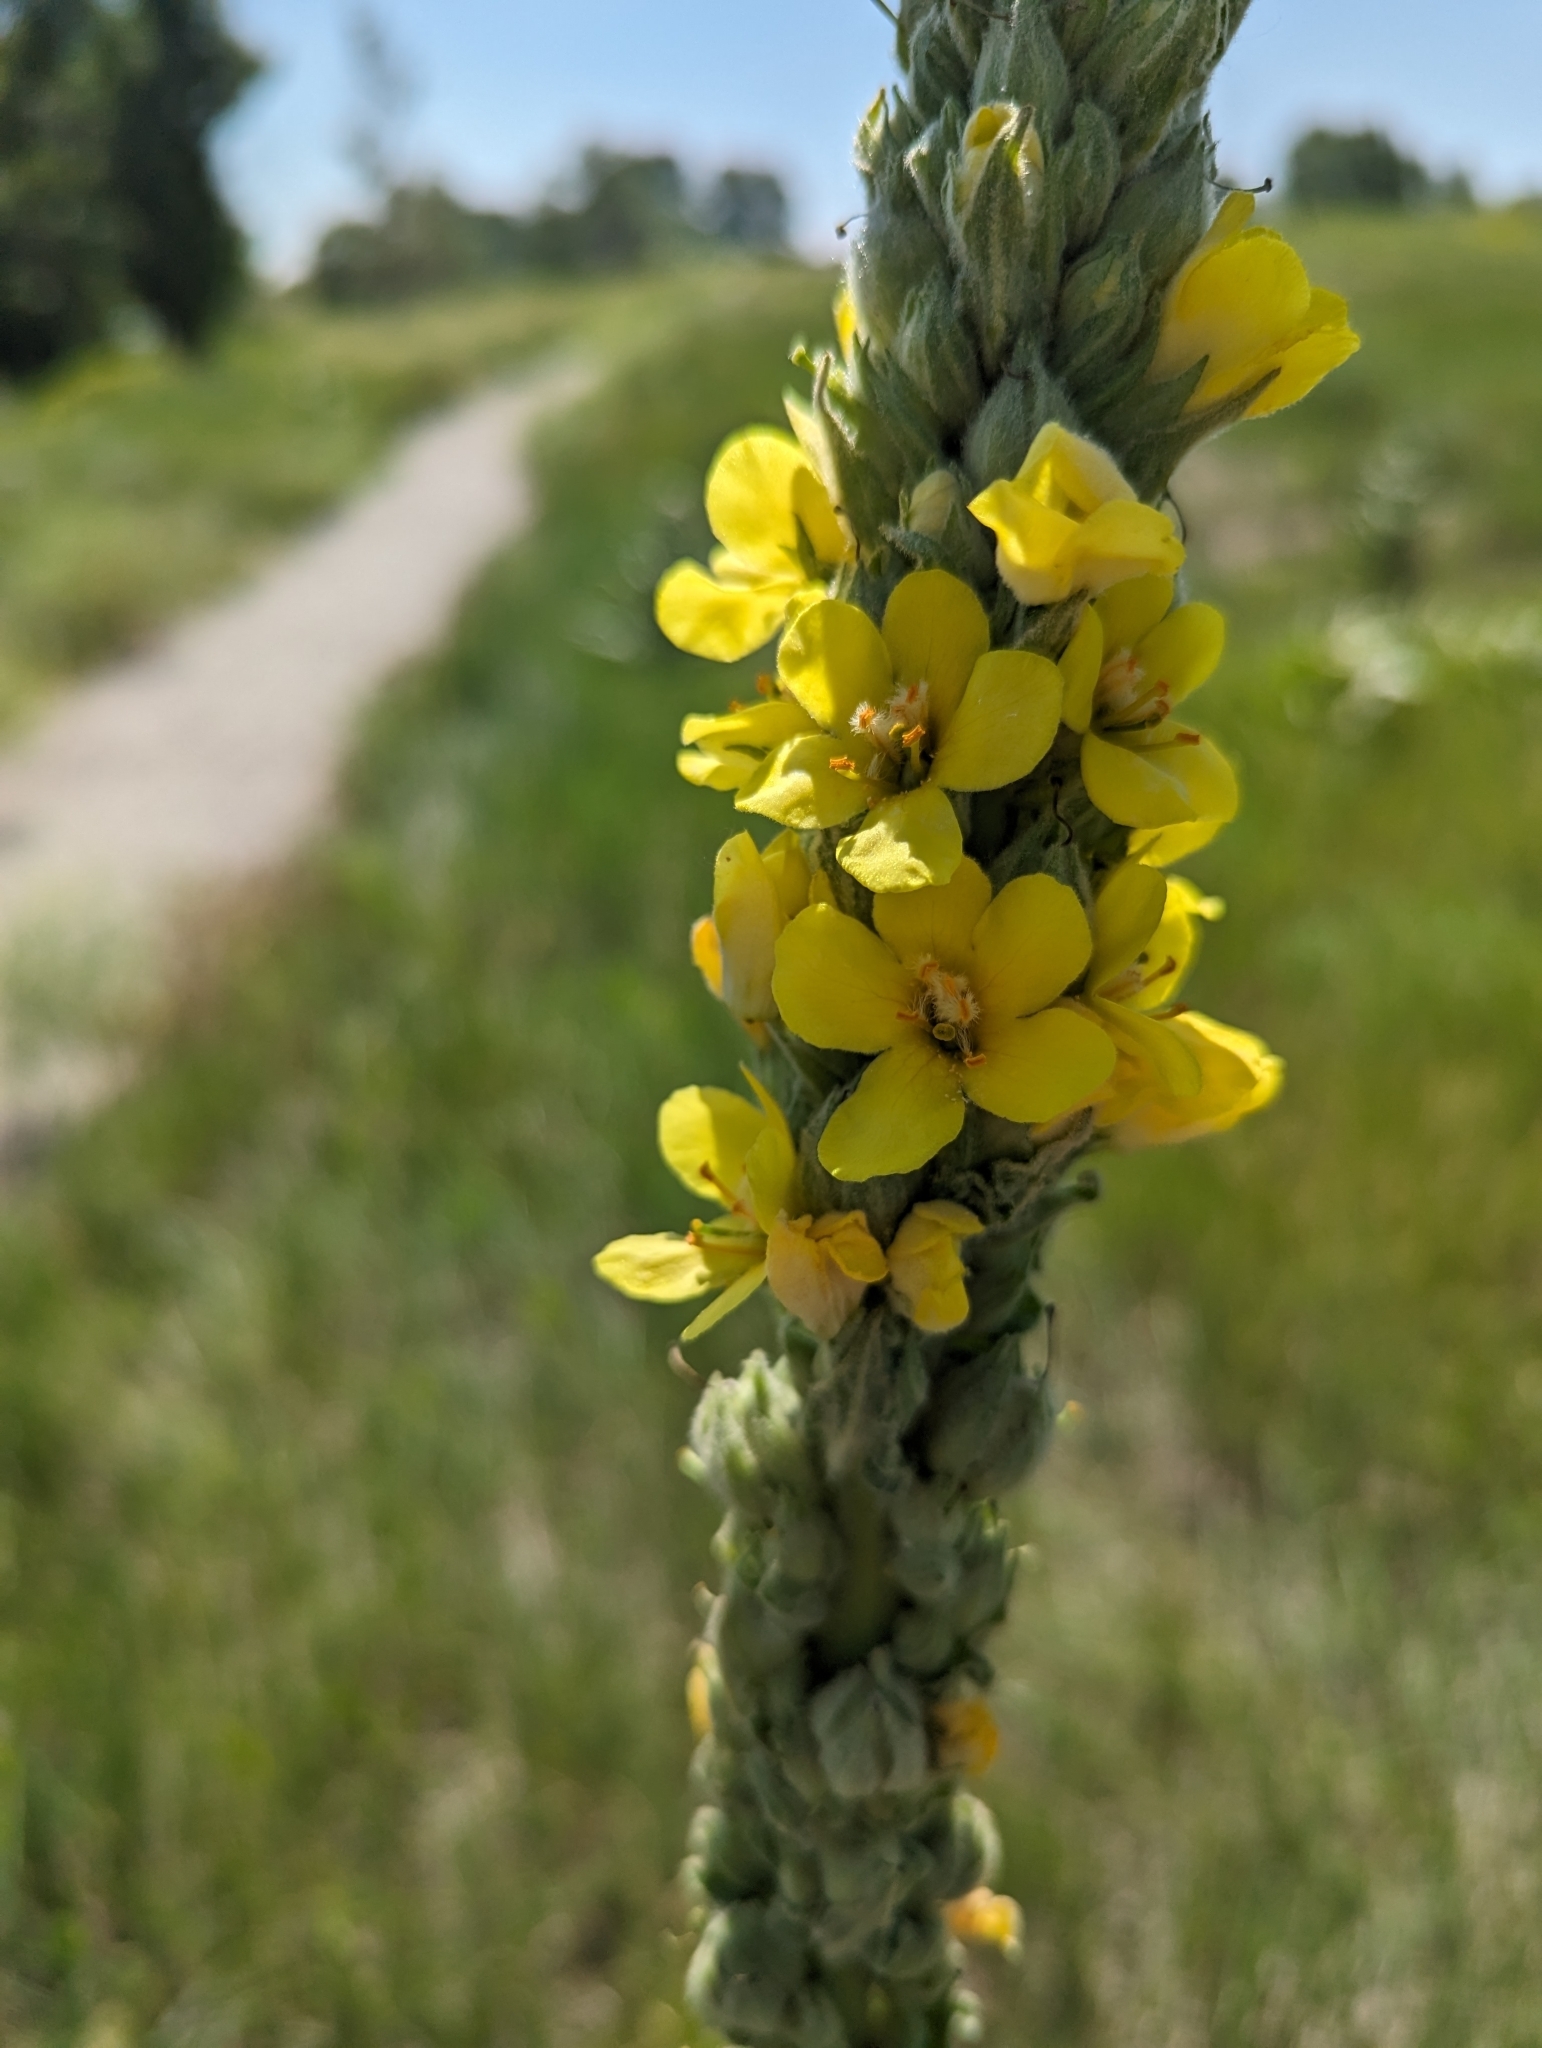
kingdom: Plantae
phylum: Tracheophyta
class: Magnoliopsida
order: Lamiales
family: Scrophulariaceae
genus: Verbascum
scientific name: Verbascum thapsus
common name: Common mullein
